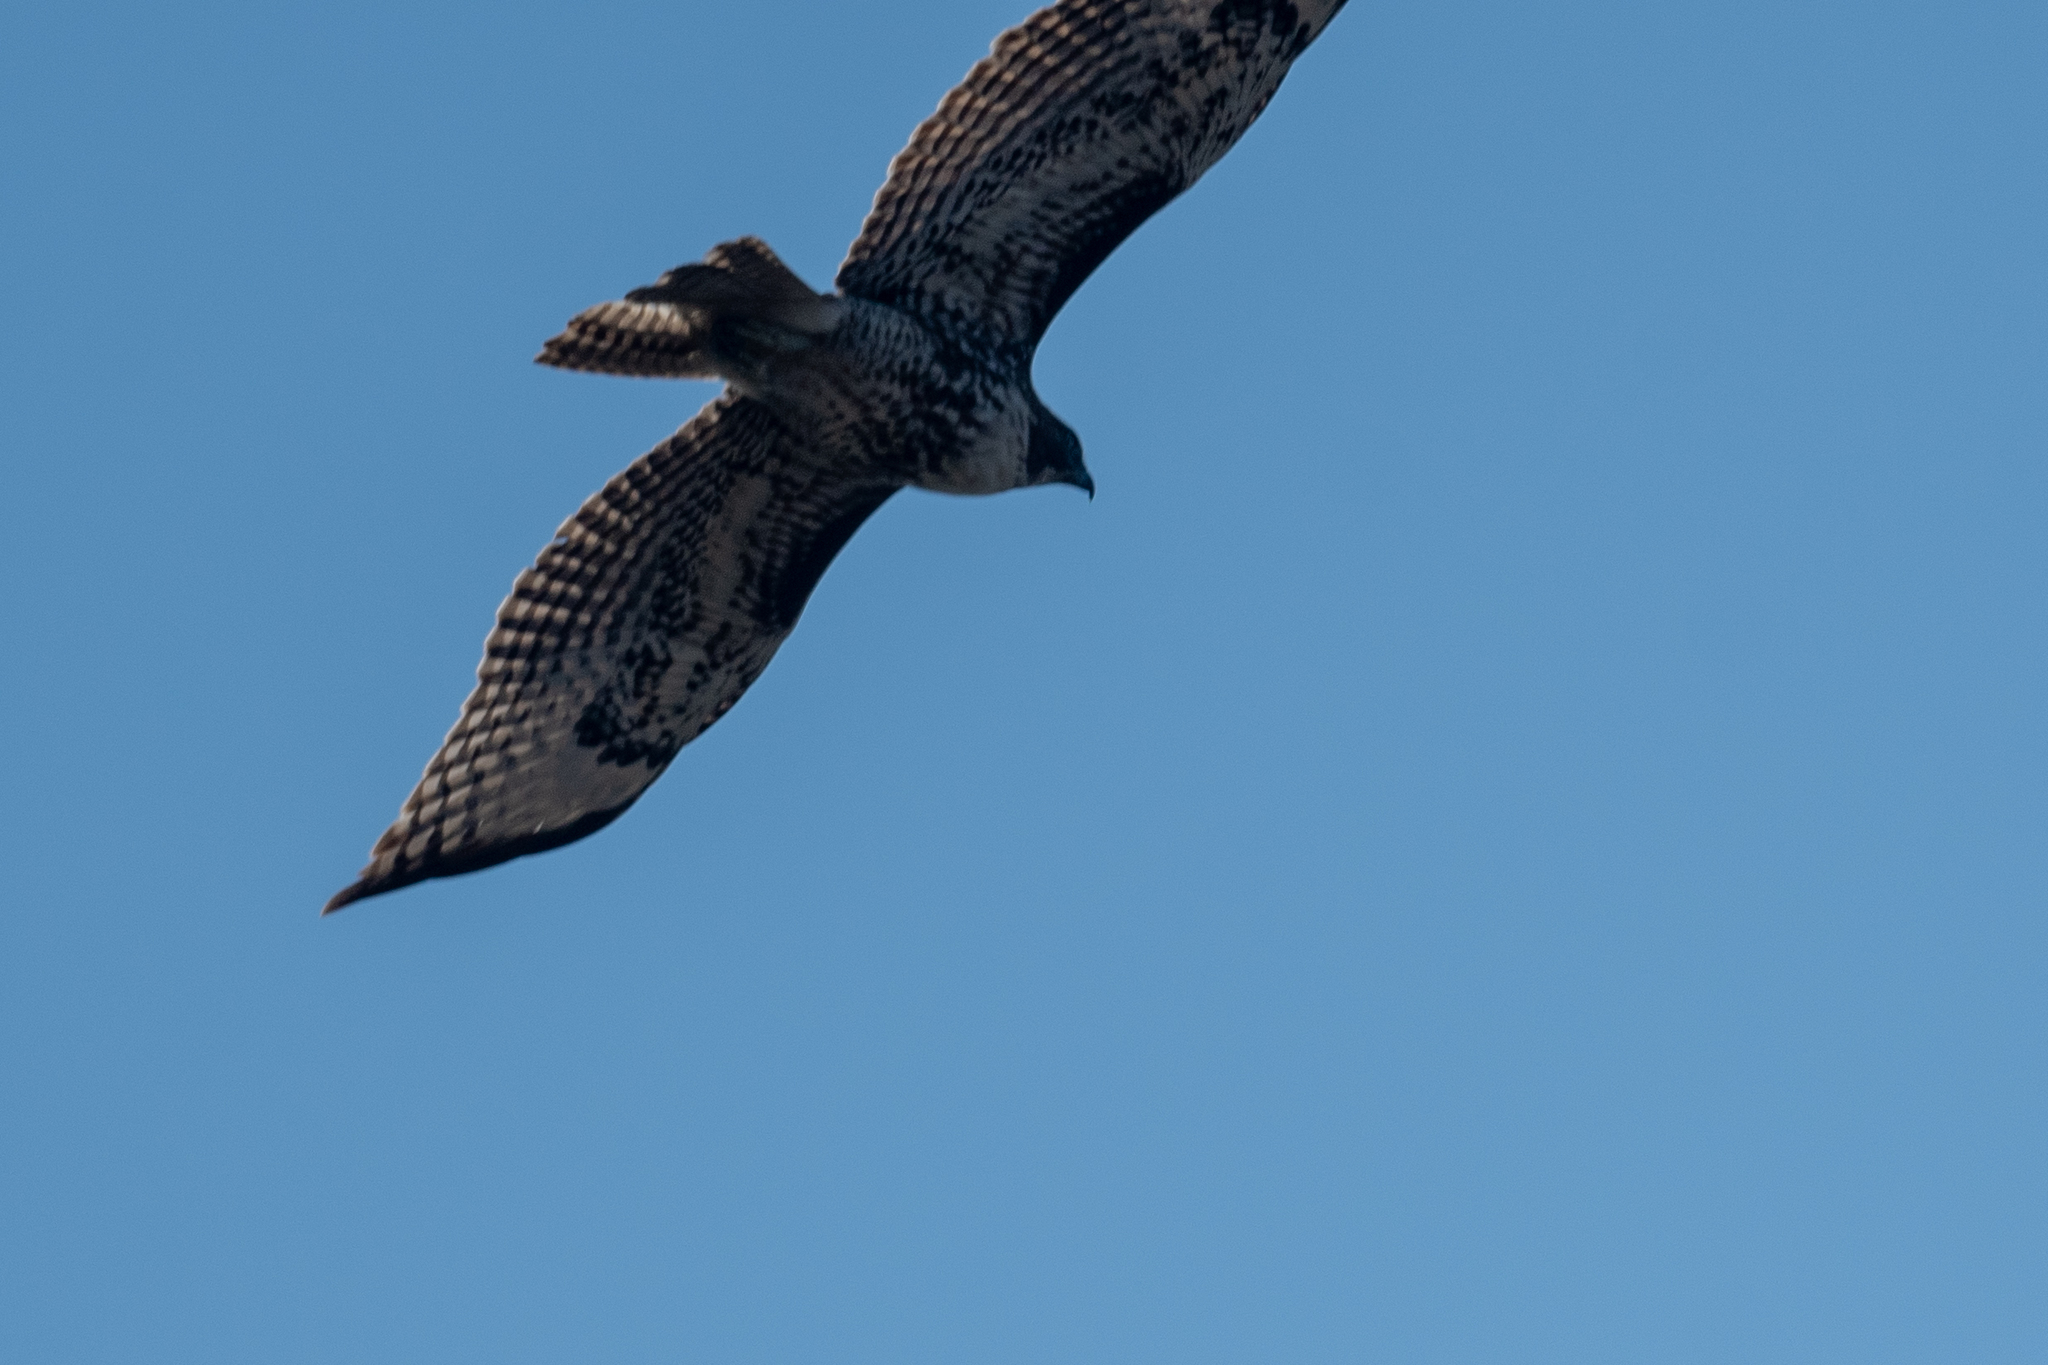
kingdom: Animalia
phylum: Chordata
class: Aves
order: Accipitriformes
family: Accipitridae
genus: Buteo
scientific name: Buteo jamaicensis
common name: Red-tailed hawk
